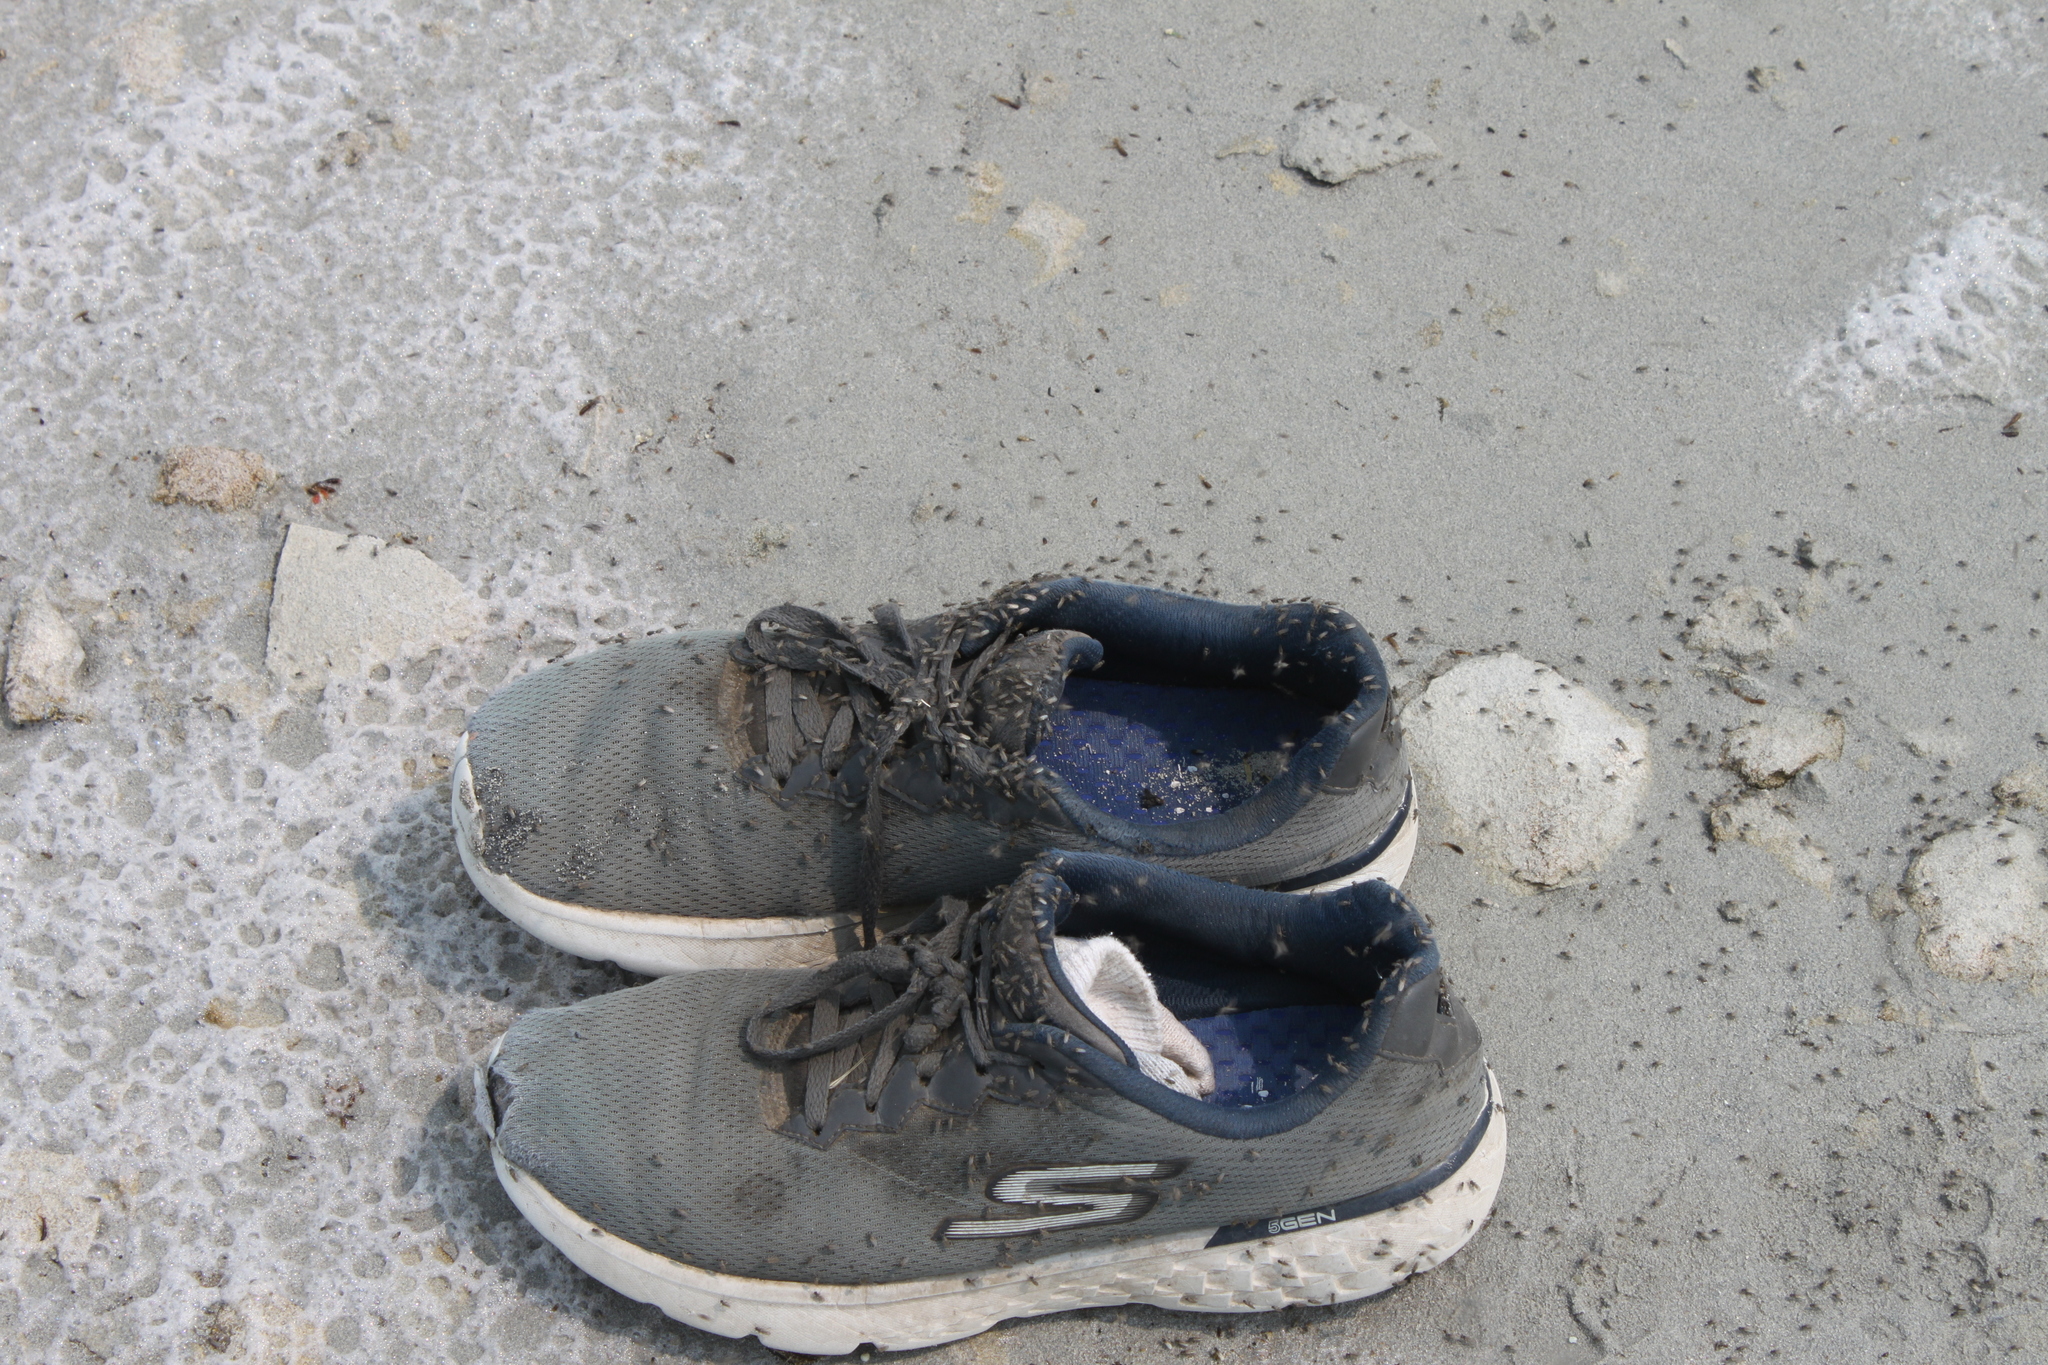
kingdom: Animalia
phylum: Arthropoda
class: Insecta
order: Diptera
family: Ephydridae
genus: Ephydra
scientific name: Ephydra gracilis
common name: Shore fly
